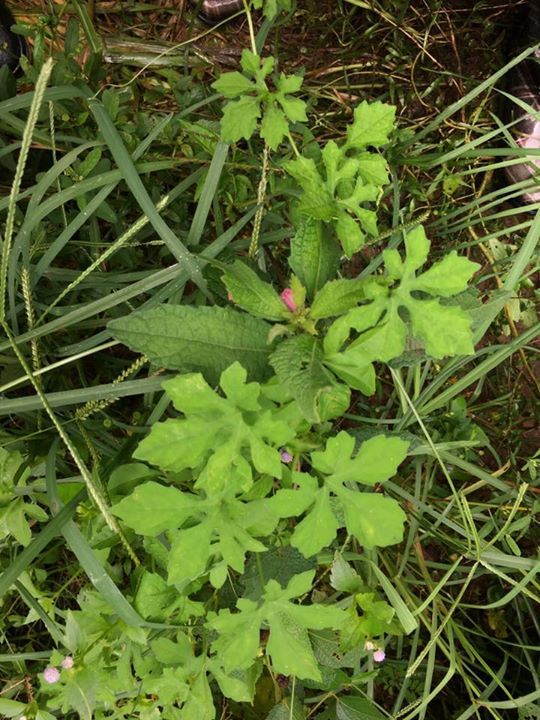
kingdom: Plantae
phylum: Tracheophyta
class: Magnoliopsida
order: Cucurbitales
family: Cucurbitaceae
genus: Momordica
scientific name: Momordica charantia
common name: Balsampear
